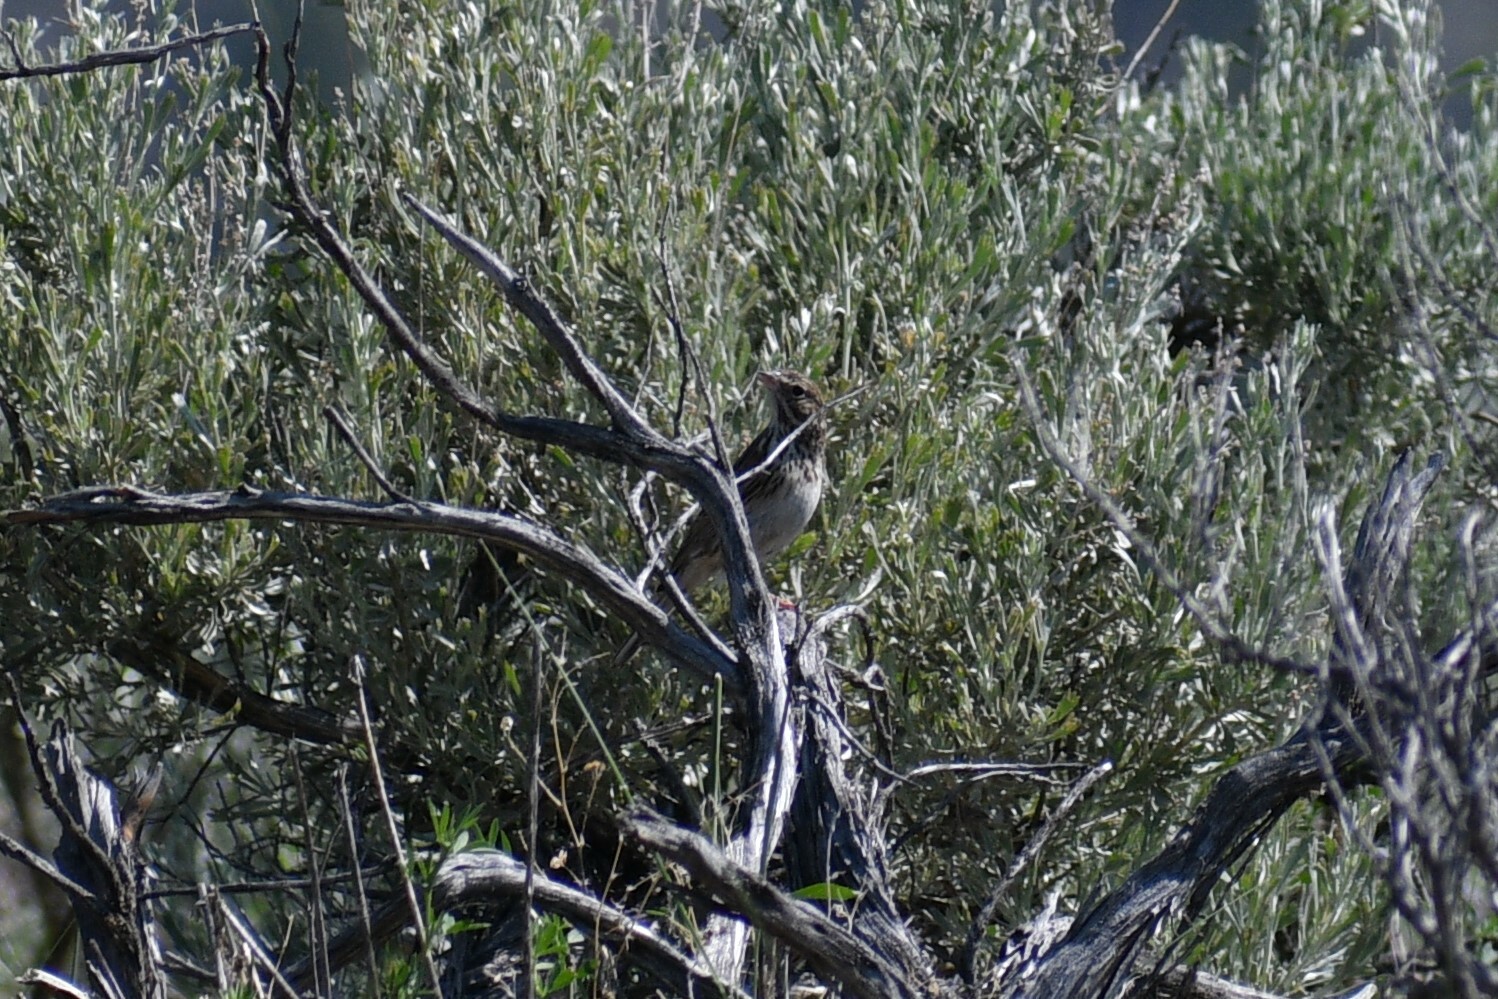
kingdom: Animalia
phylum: Chordata
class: Aves
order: Passeriformes
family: Passerellidae
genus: Pooecetes
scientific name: Pooecetes gramineus
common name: Vesper sparrow
